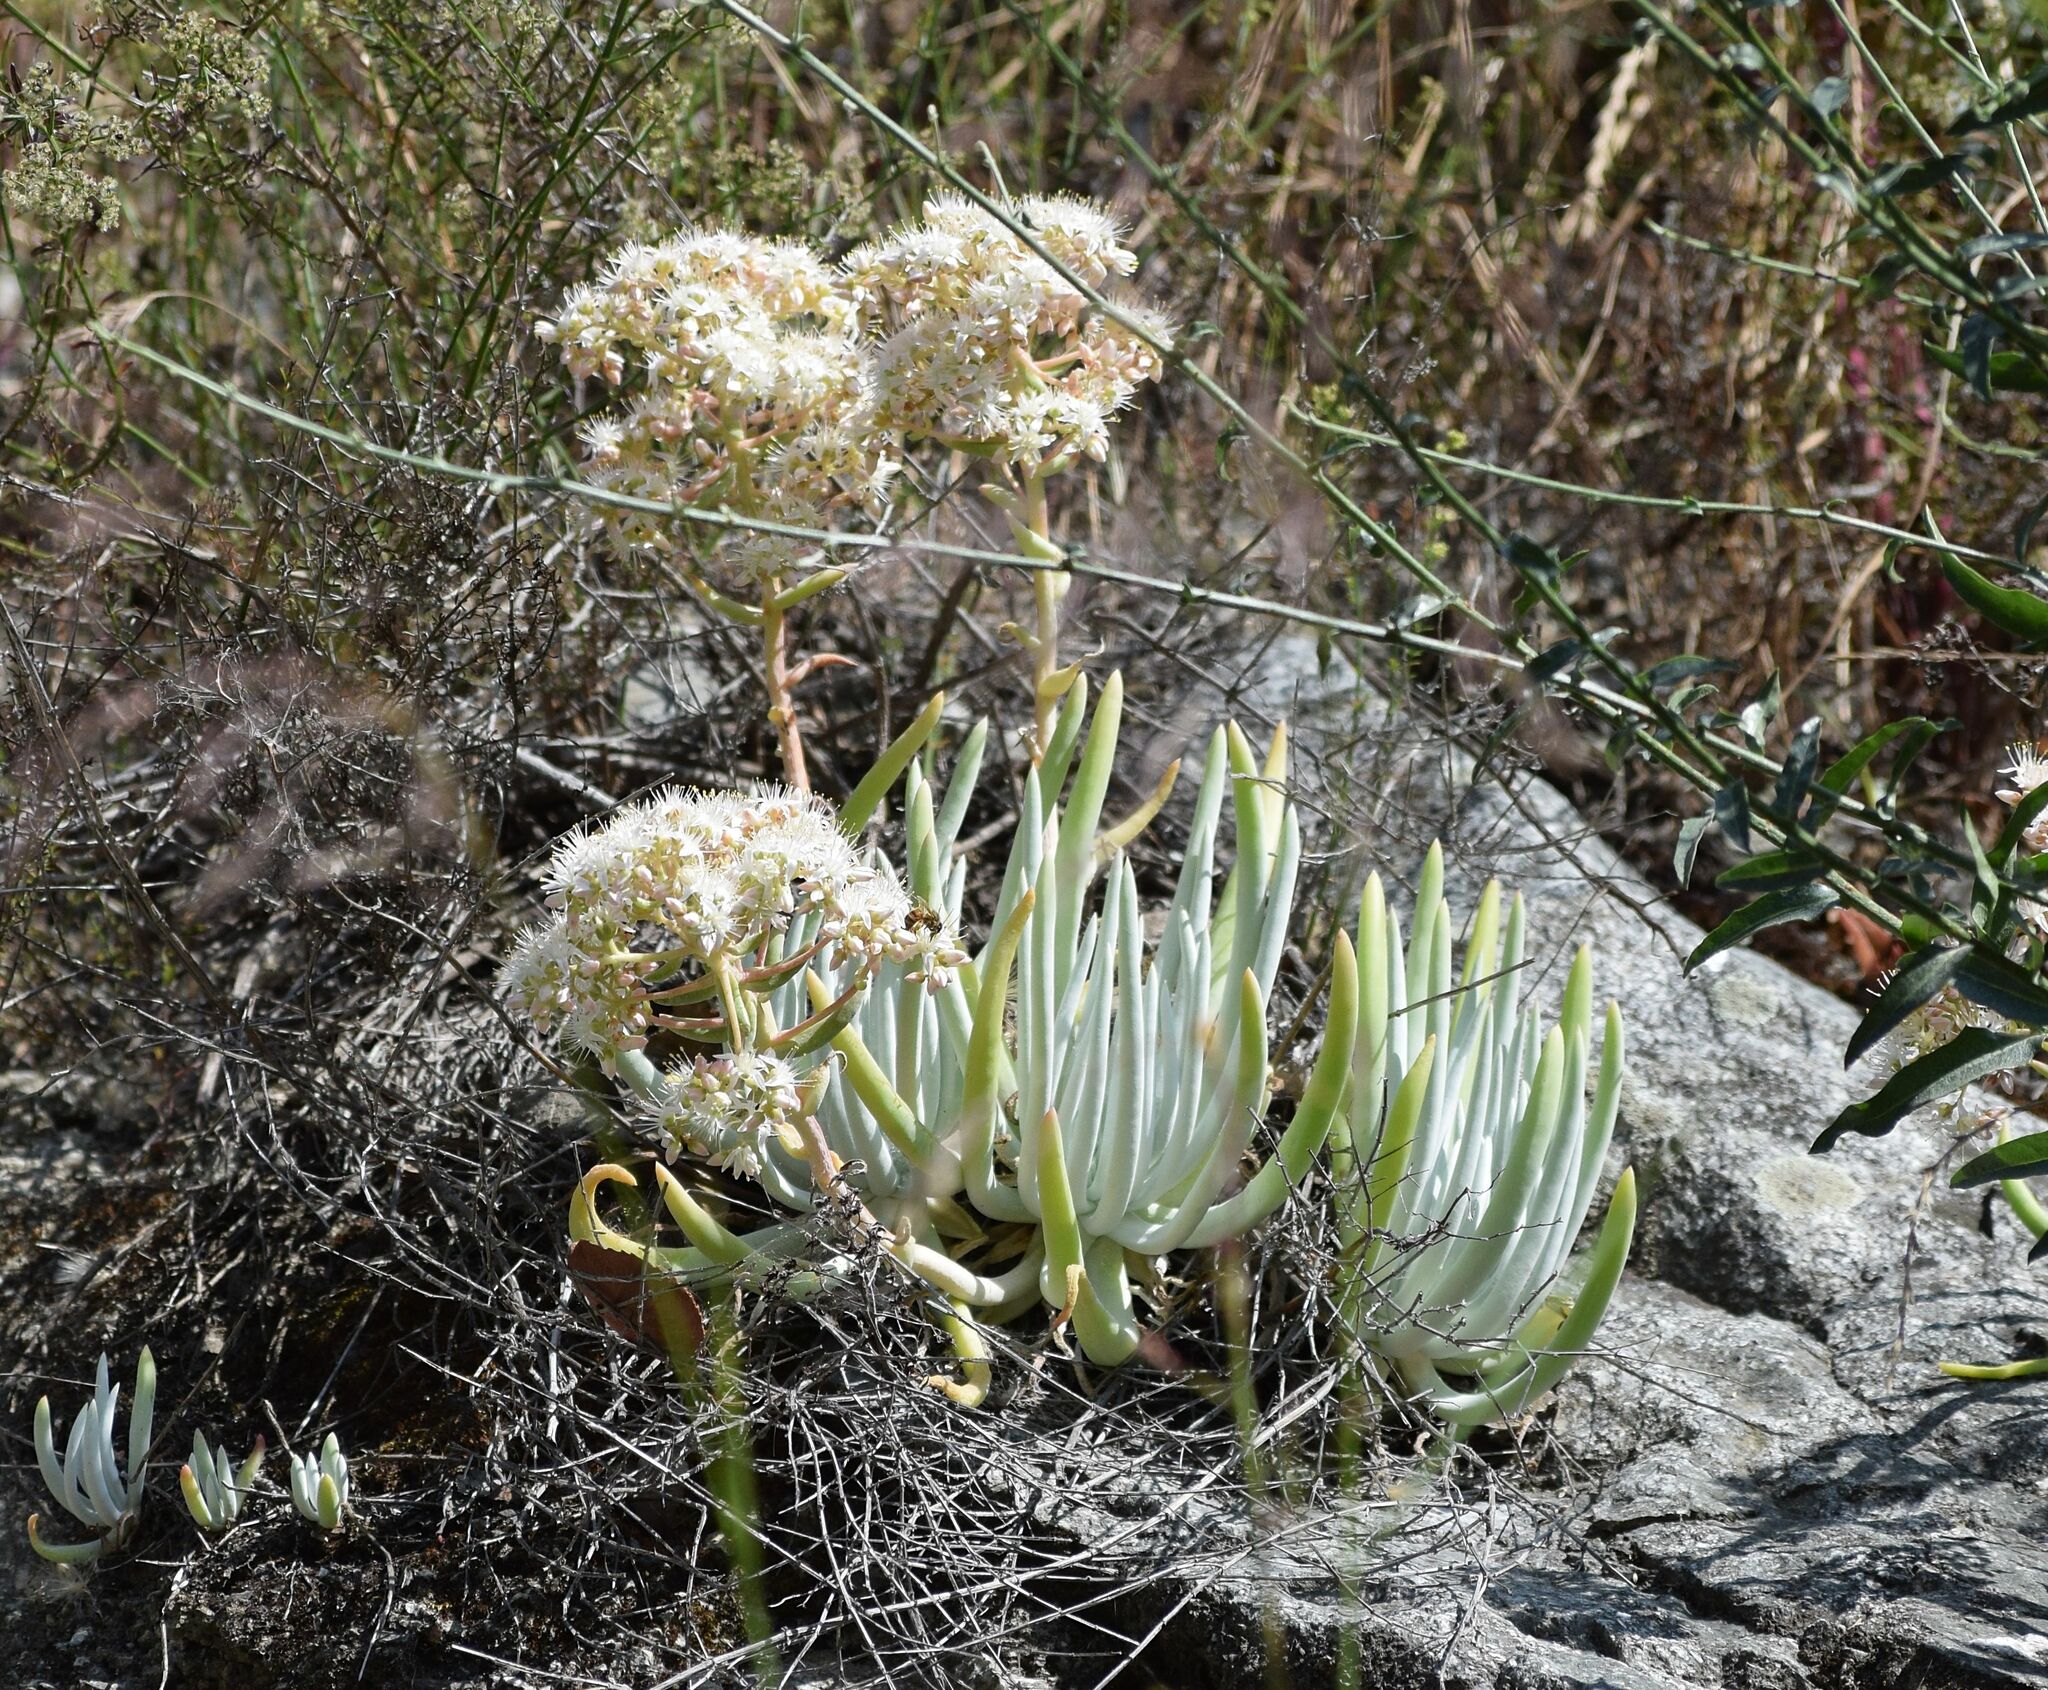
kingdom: Plantae
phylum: Tracheophyta
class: Magnoliopsida
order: Saxifragales
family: Crassulaceae
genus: Dudleya
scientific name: Dudleya densiflora
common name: San gabriel mountains dudleya
